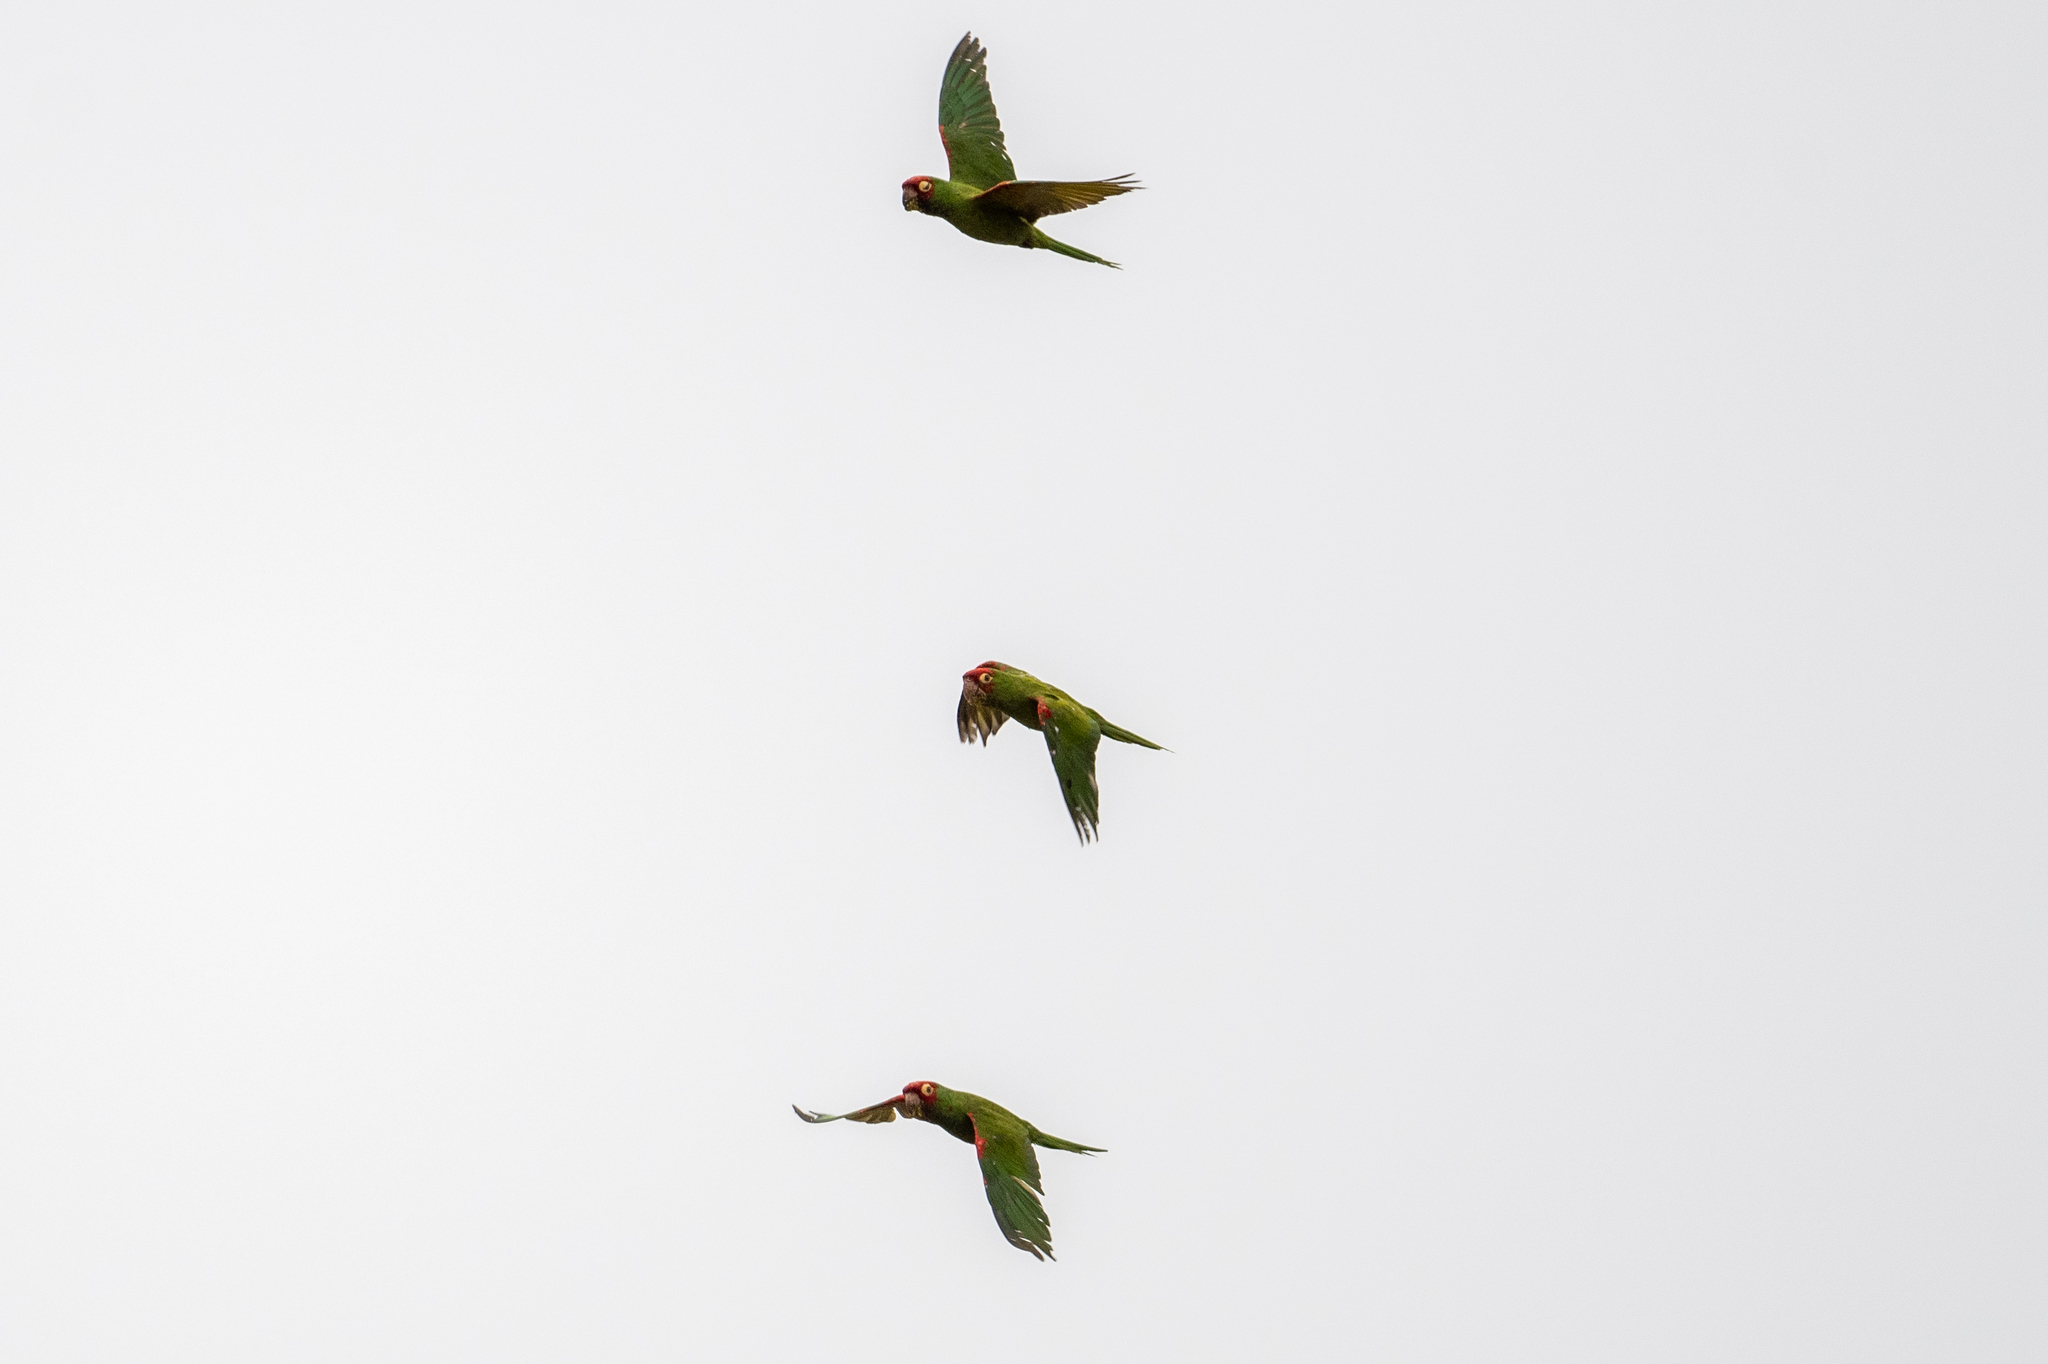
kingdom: Animalia
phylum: Chordata
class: Aves
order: Psittaciformes
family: Psittacidae
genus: Aratinga
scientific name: Aratinga erythrogenys
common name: Red-masked parakeet
